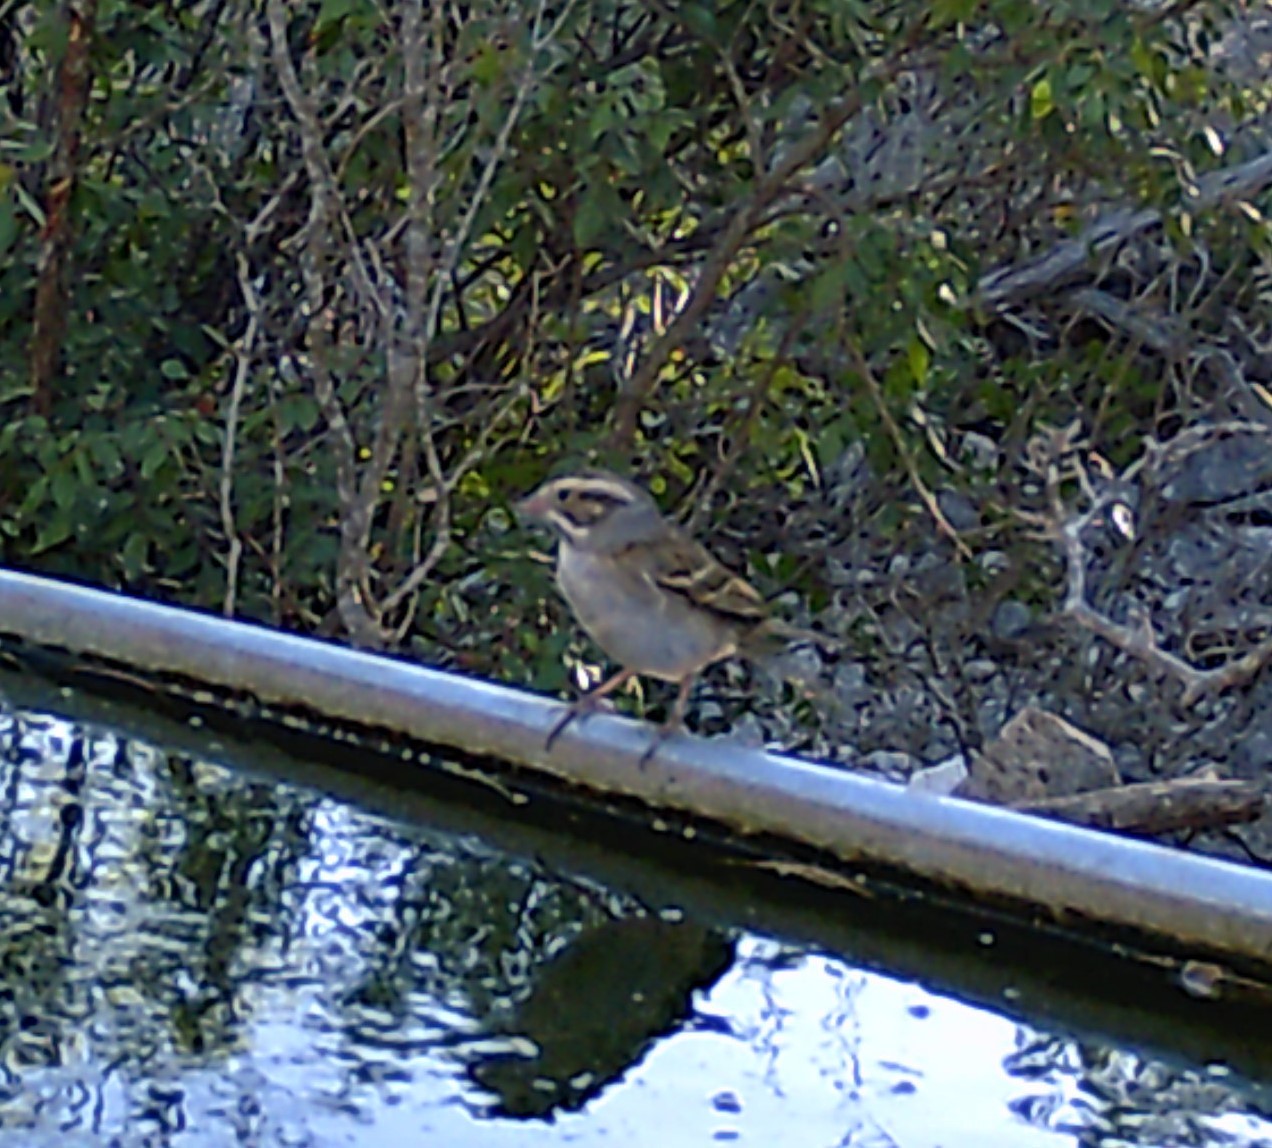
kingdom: Animalia
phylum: Chordata
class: Aves
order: Passeriformes
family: Passerellidae
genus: Spizella
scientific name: Spizella pallida
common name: Clay-colored sparrow
